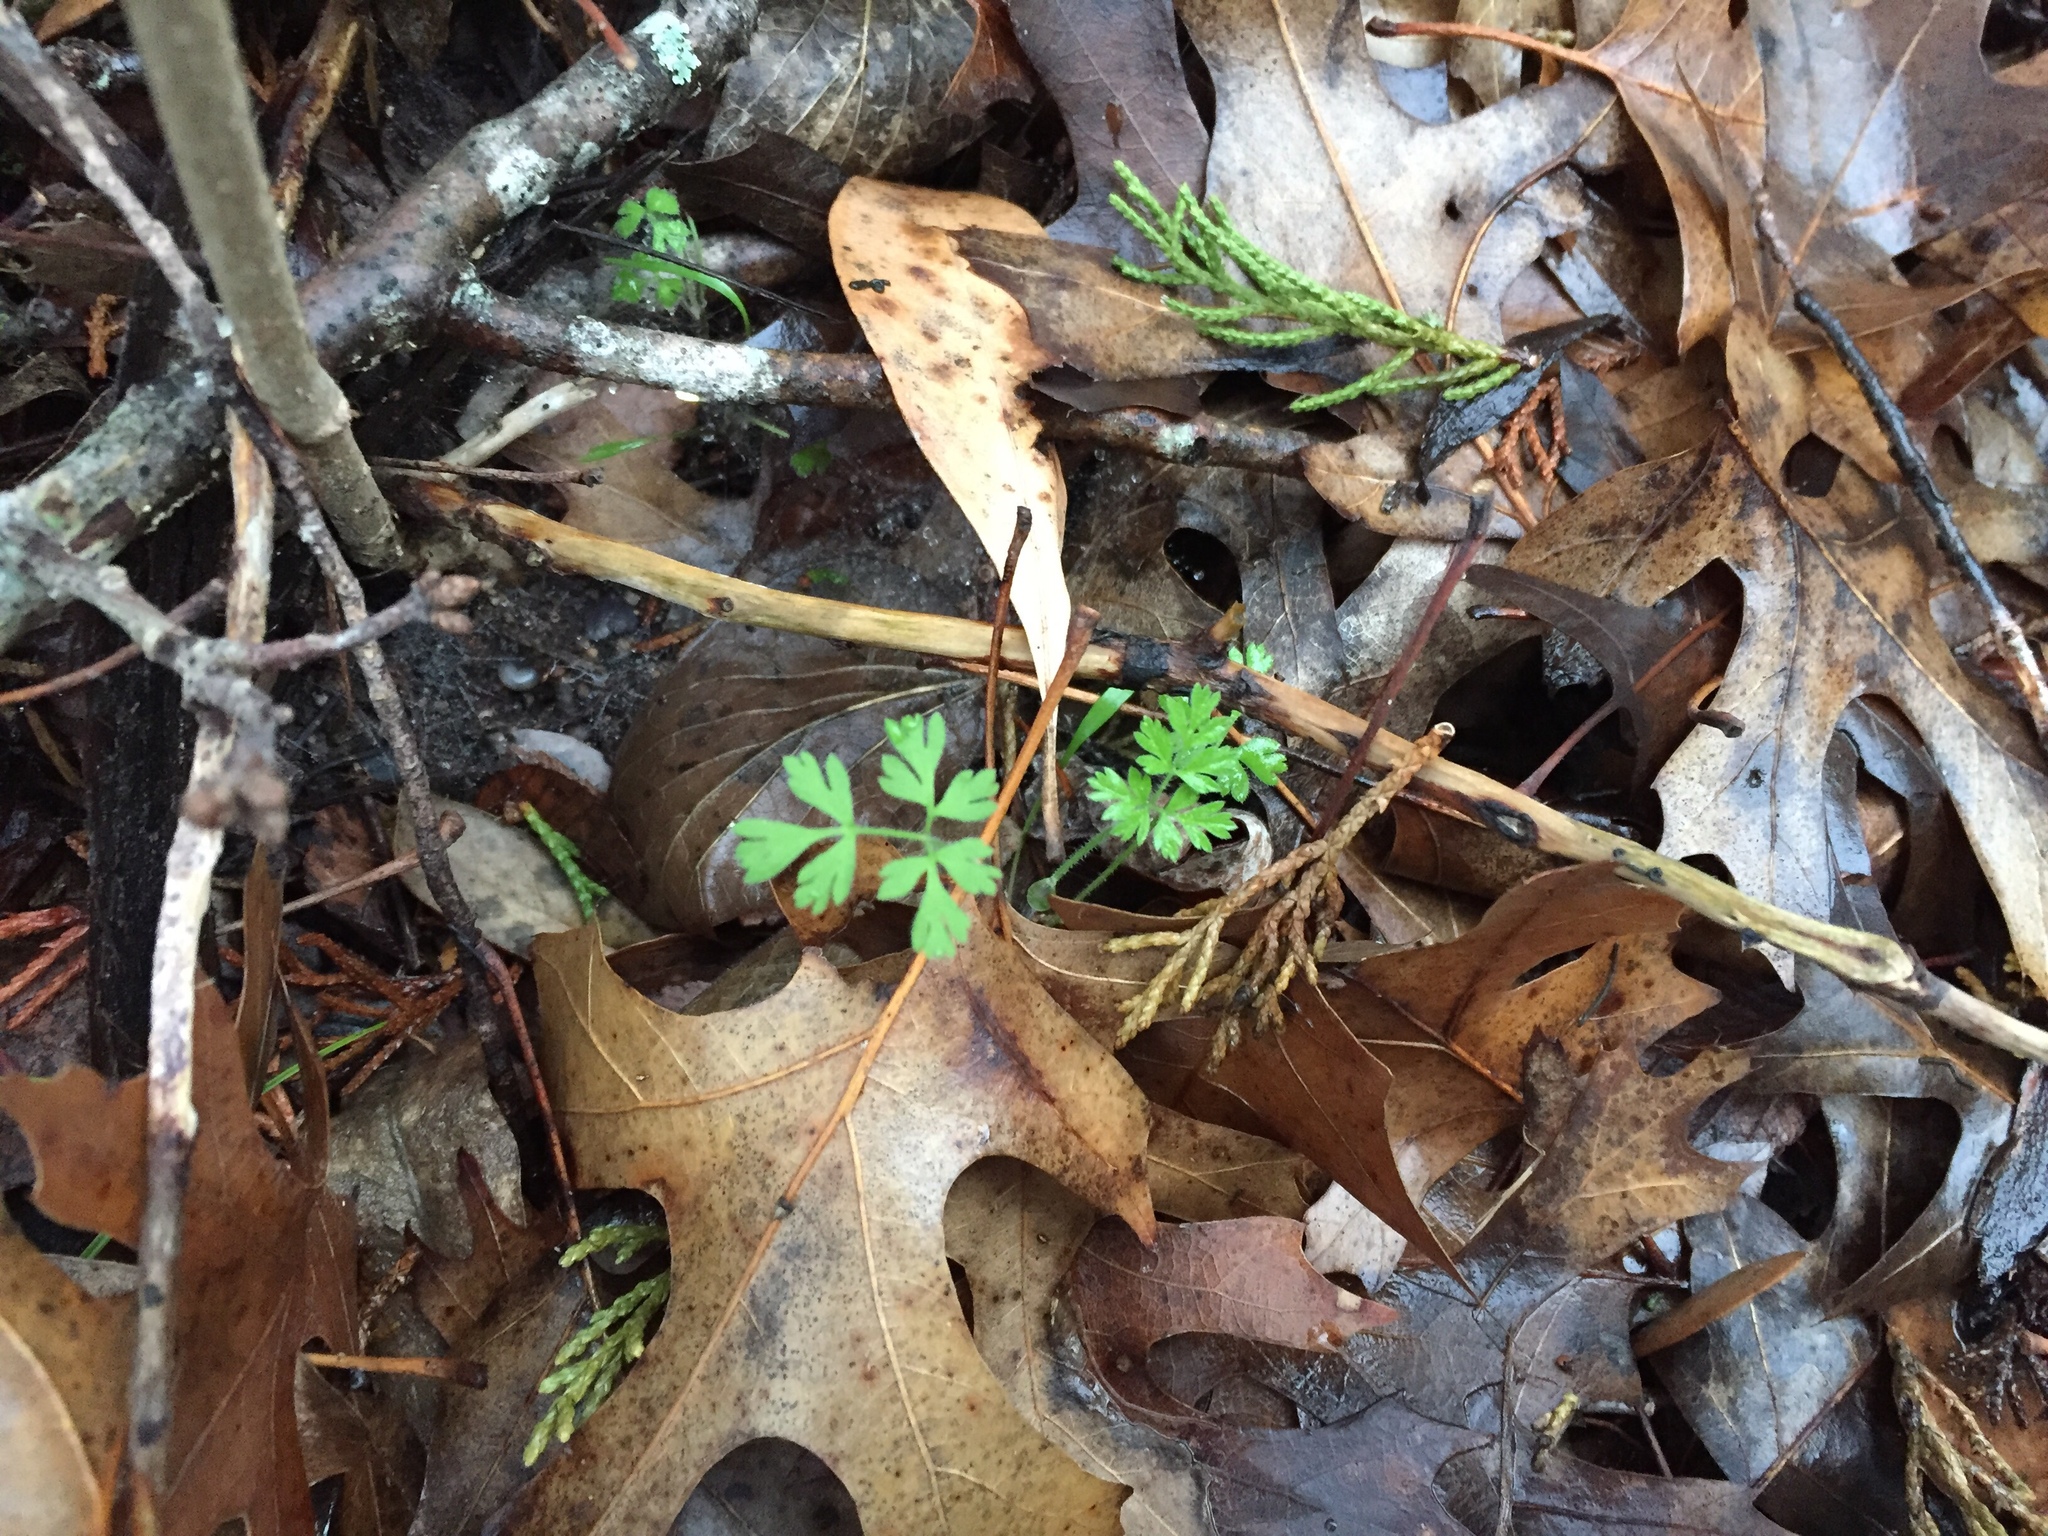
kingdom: Plantae
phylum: Tracheophyta
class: Magnoliopsida
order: Apiales
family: Apiaceae
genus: Torilis
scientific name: Torilis arvensis
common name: Spreading hedge-parsley
